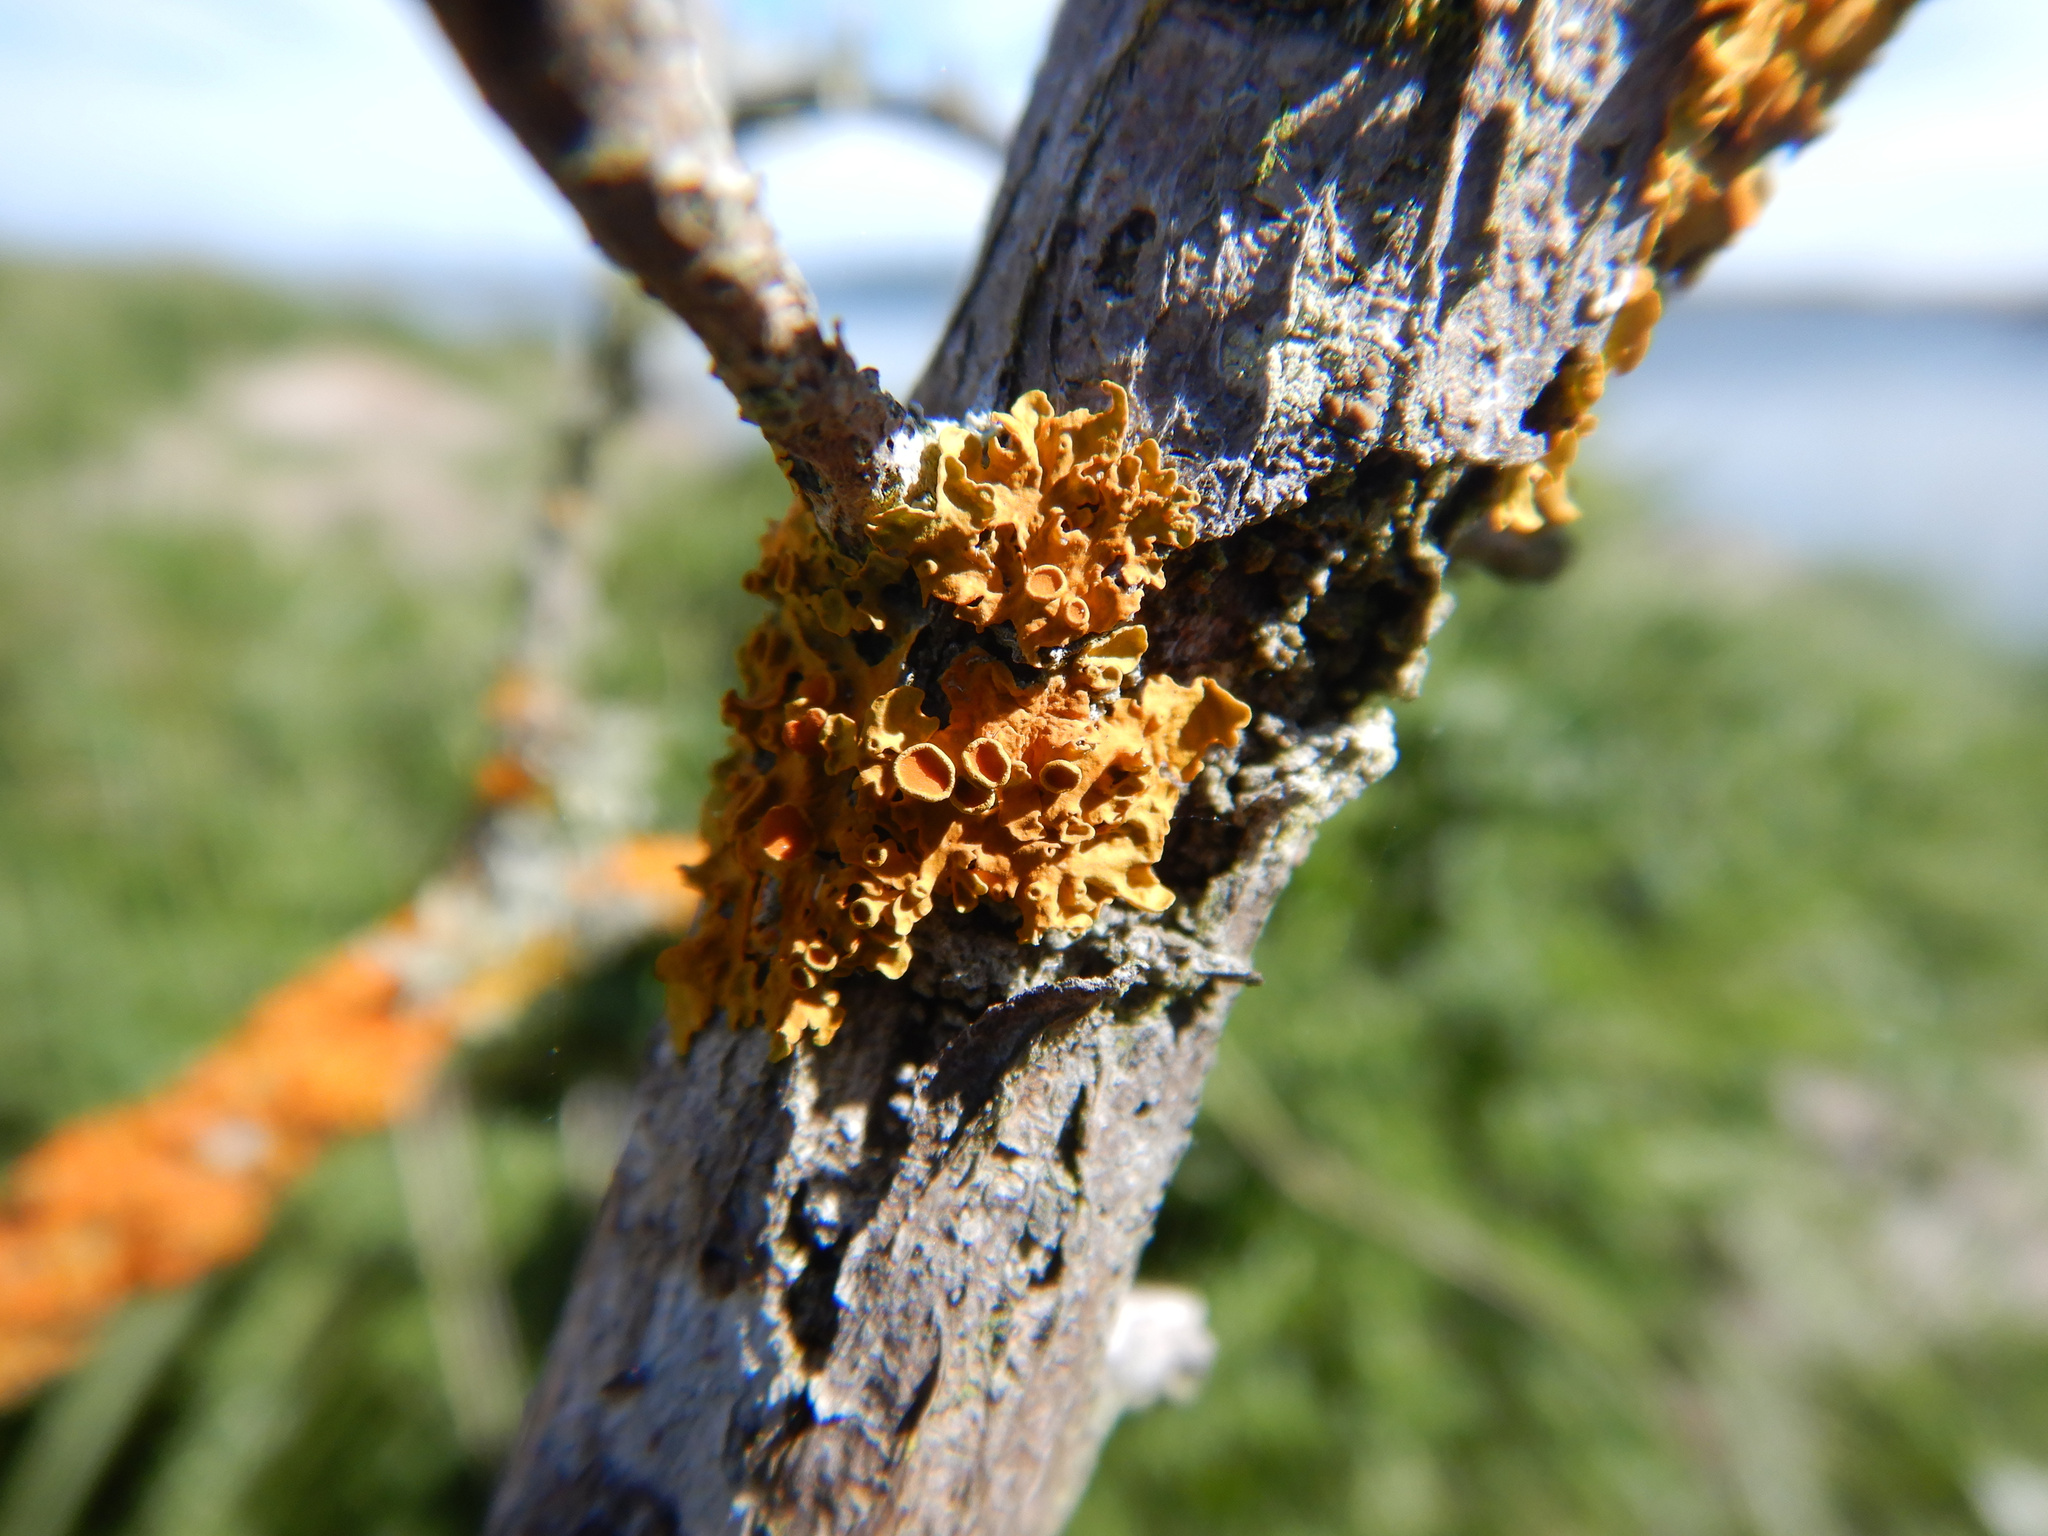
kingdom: Fungi
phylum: Ascomycota
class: Lecanoromycetes
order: Teloschistales
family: Teloschistaceae
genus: Xanthoria
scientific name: Xanthoria parietina
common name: Common orange lichen
